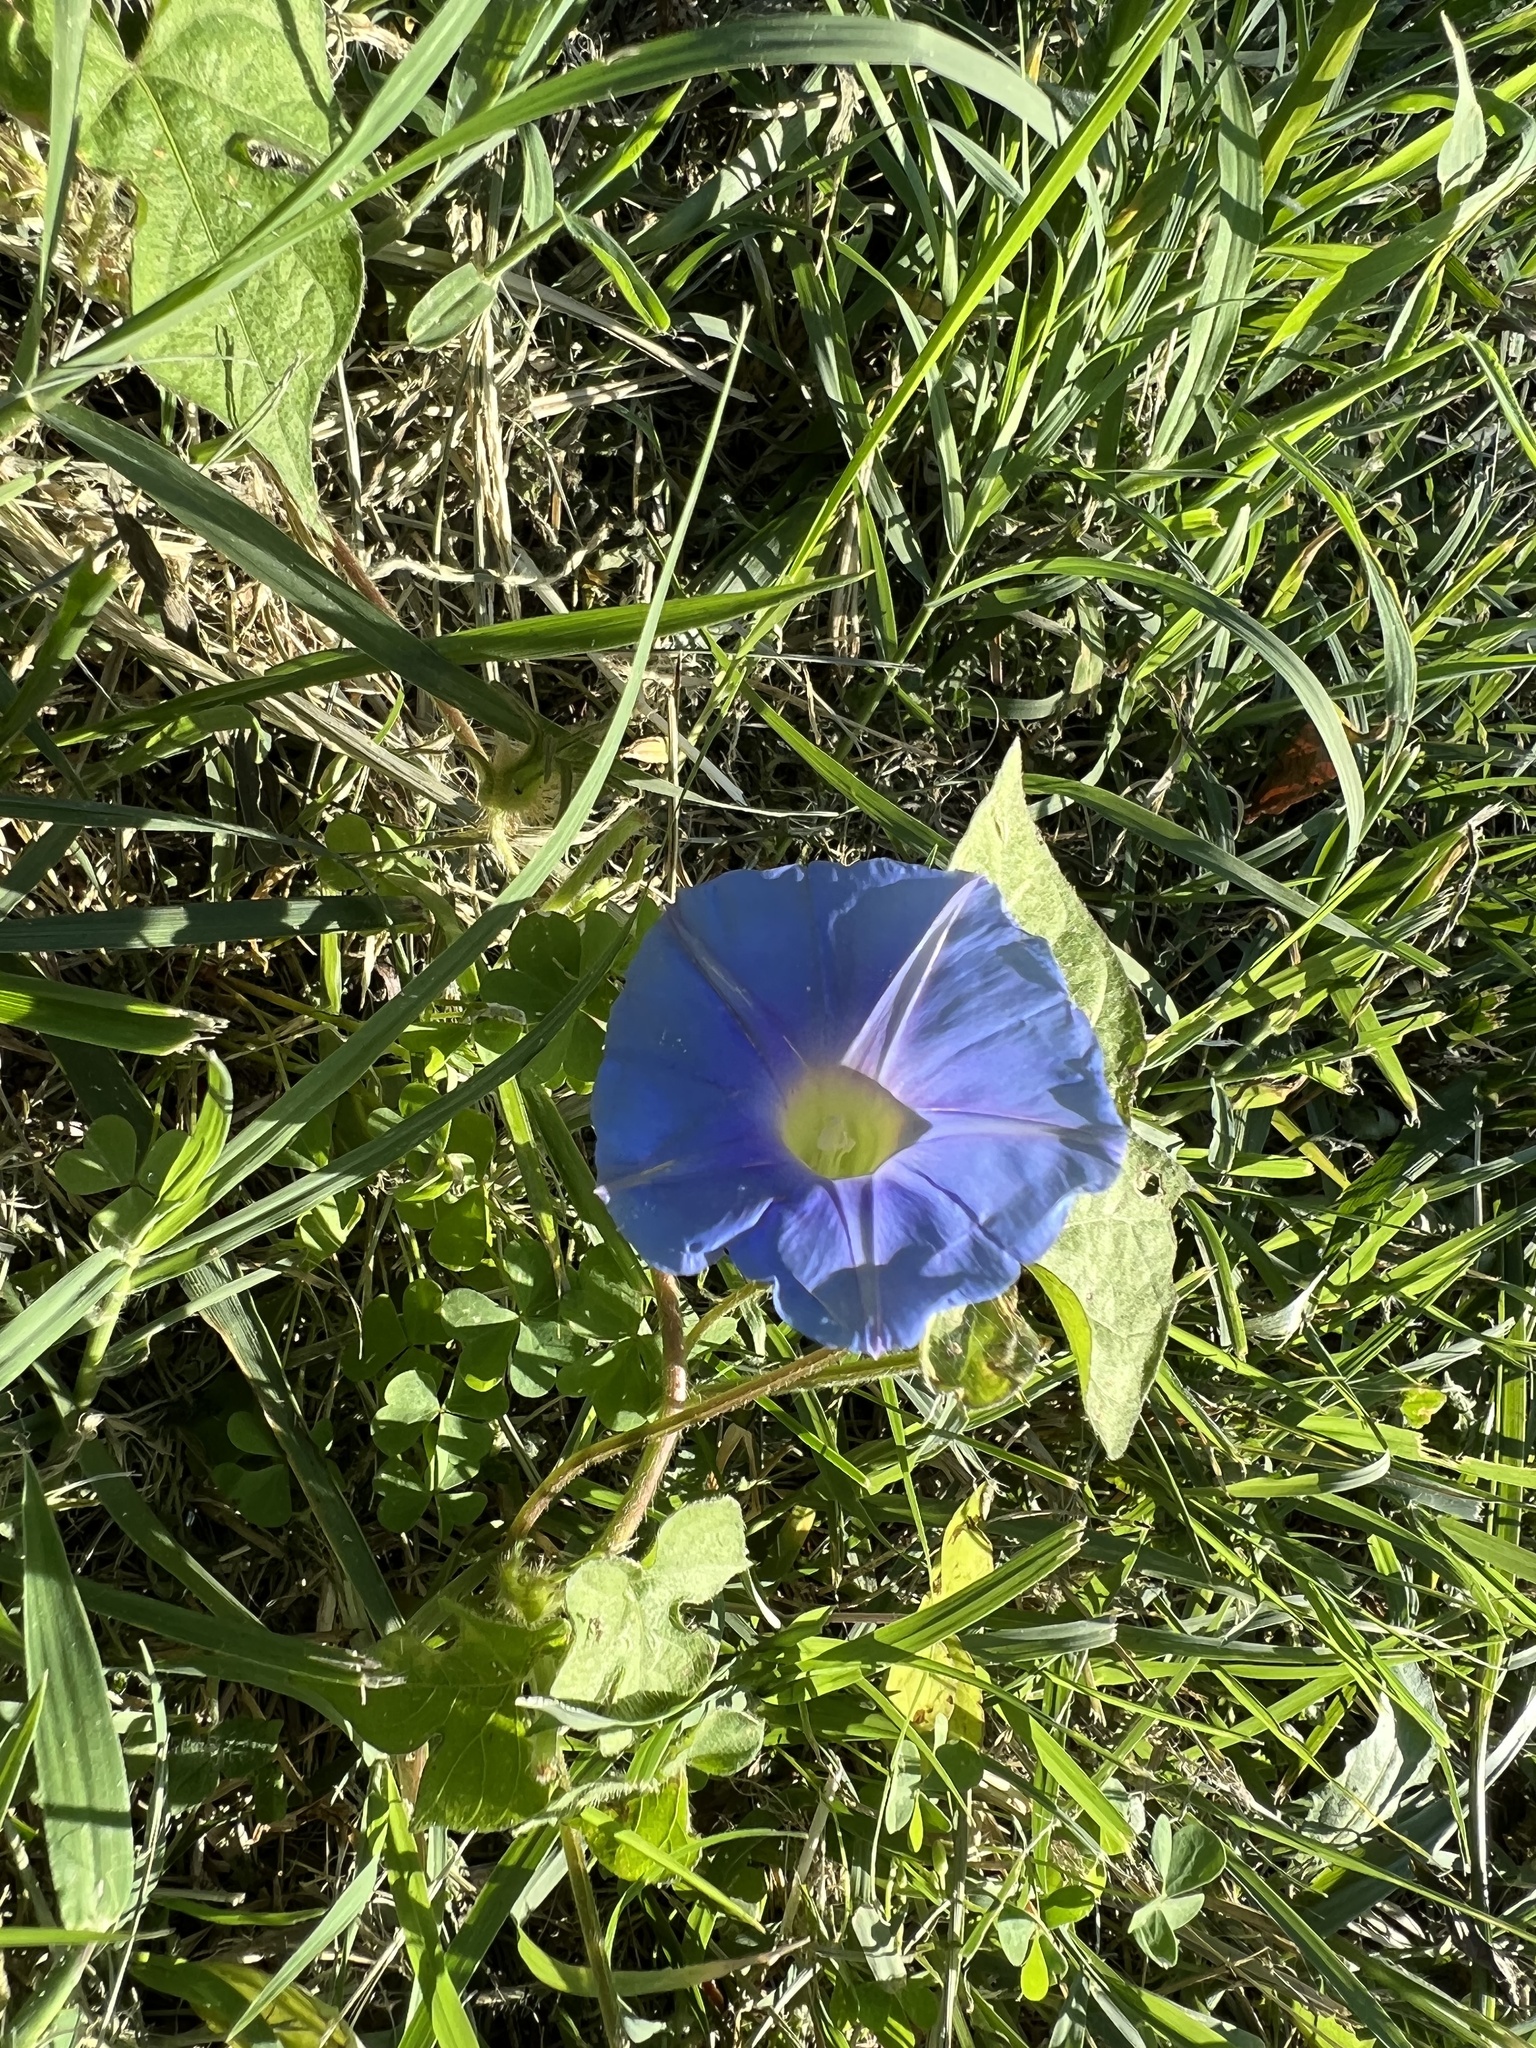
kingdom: Plantae
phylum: Tracheophyta
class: Magnoliopsida
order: Solanales
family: Convolvulaceae
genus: Ipomoea
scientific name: Ipomoea hederacea
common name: Ivy-leaved morning-glory
